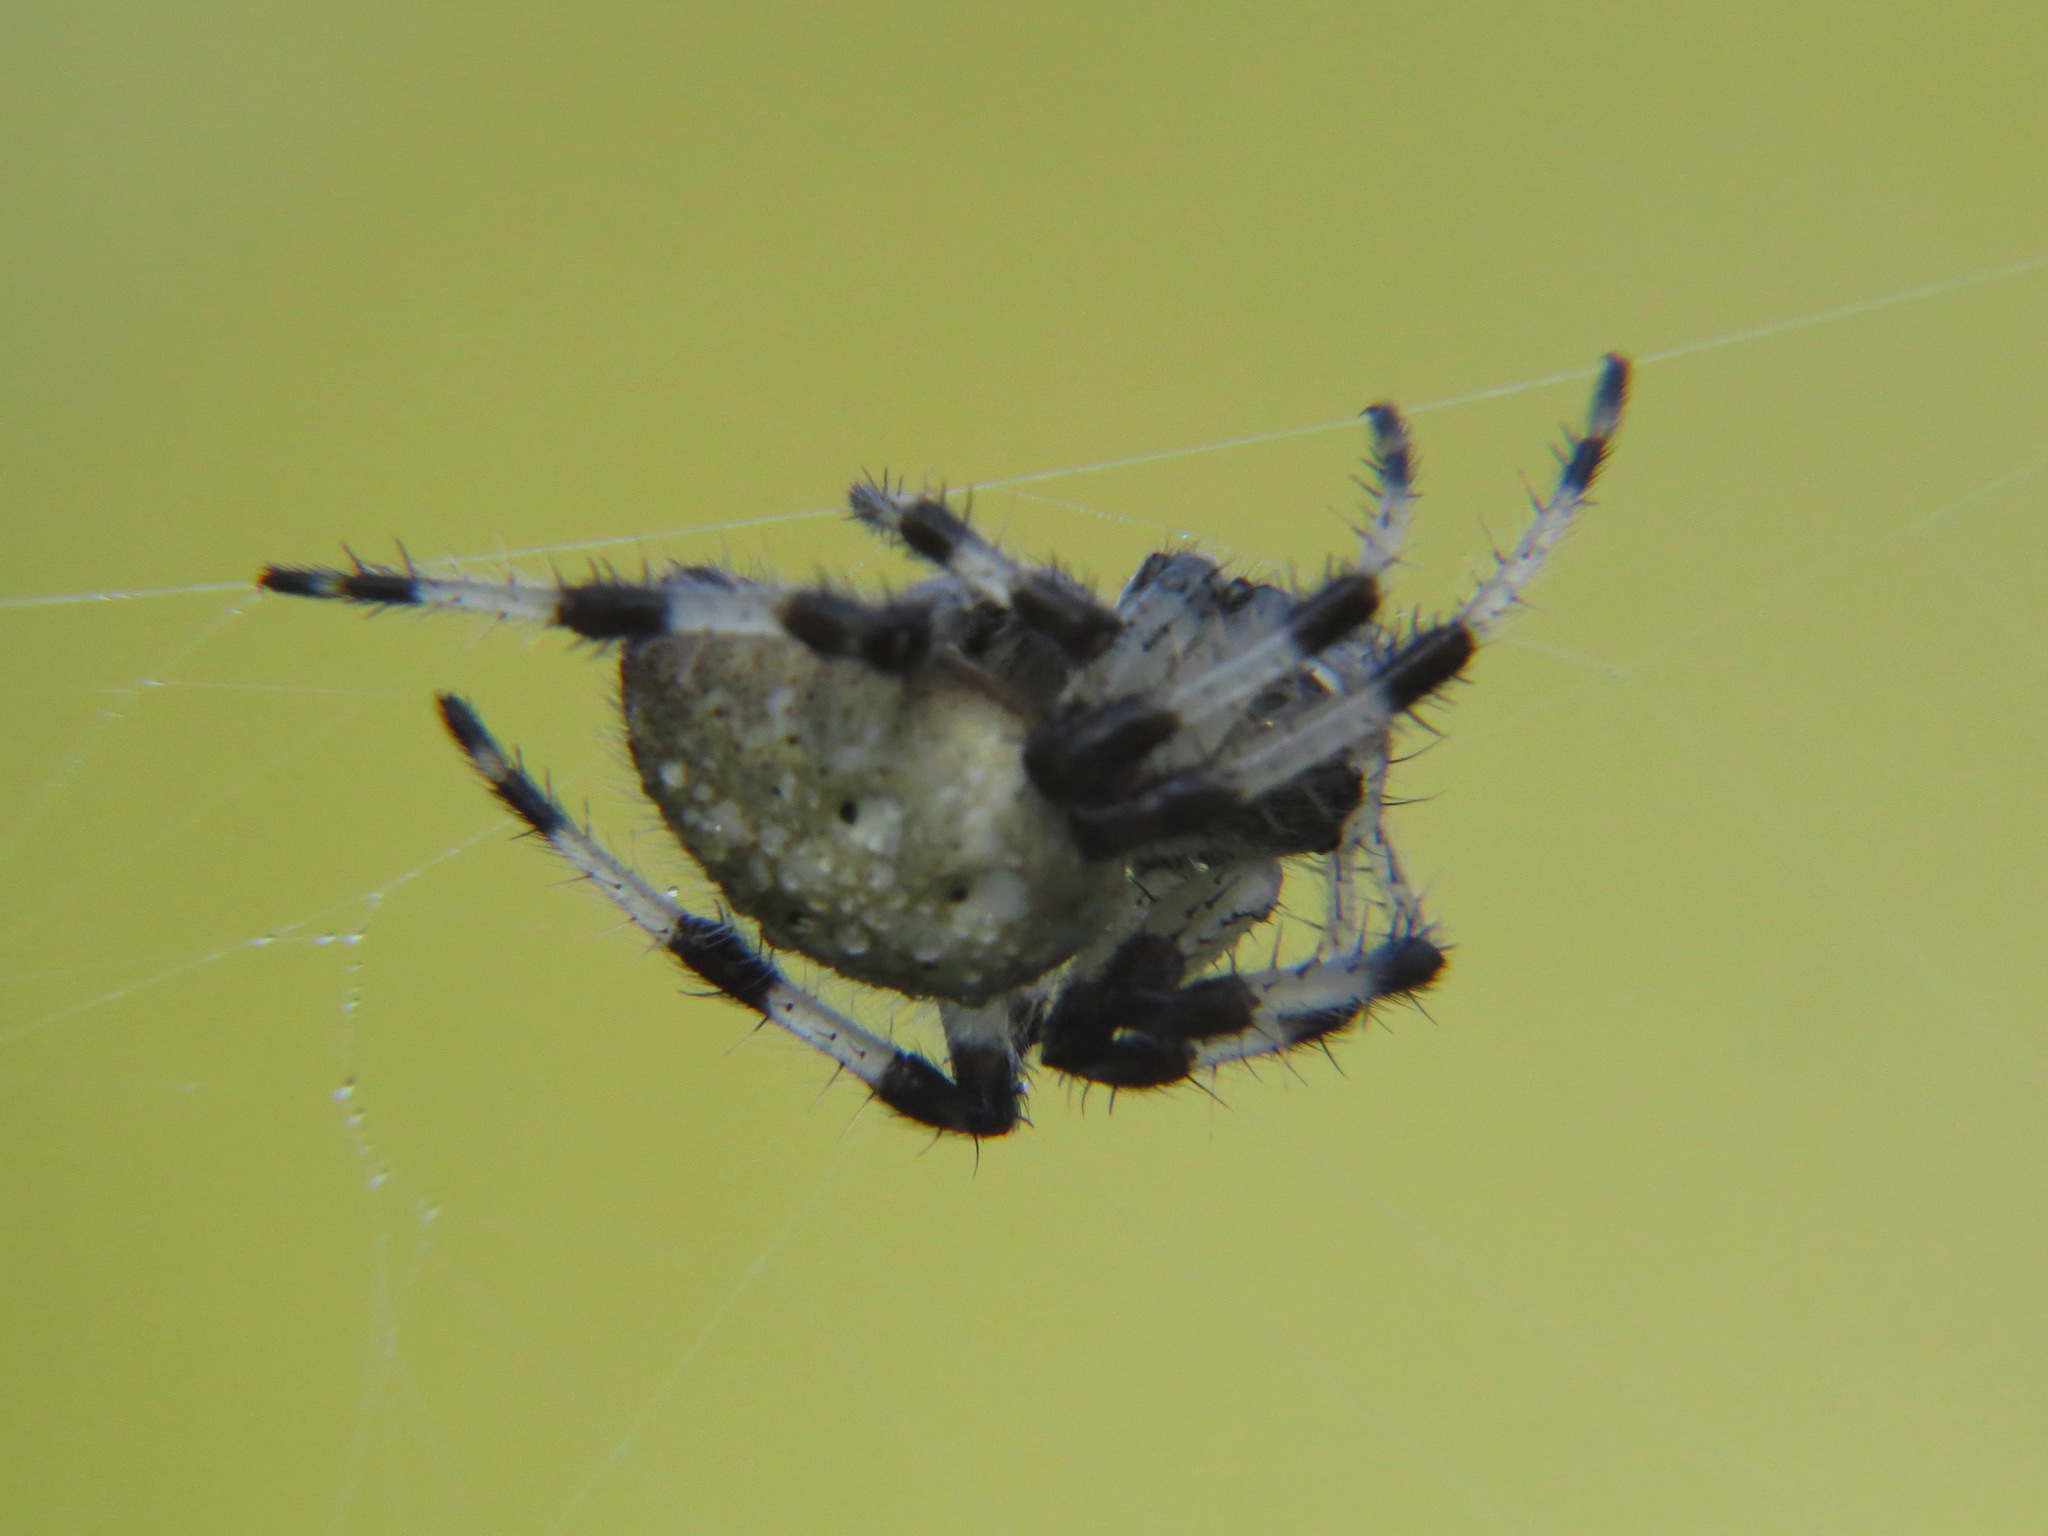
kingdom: Animalia
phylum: Arthropoda
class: Arachnida
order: Araneae
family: Araneidae
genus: Araneus
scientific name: Araneus trifolium
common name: Shamrock orbweaver
